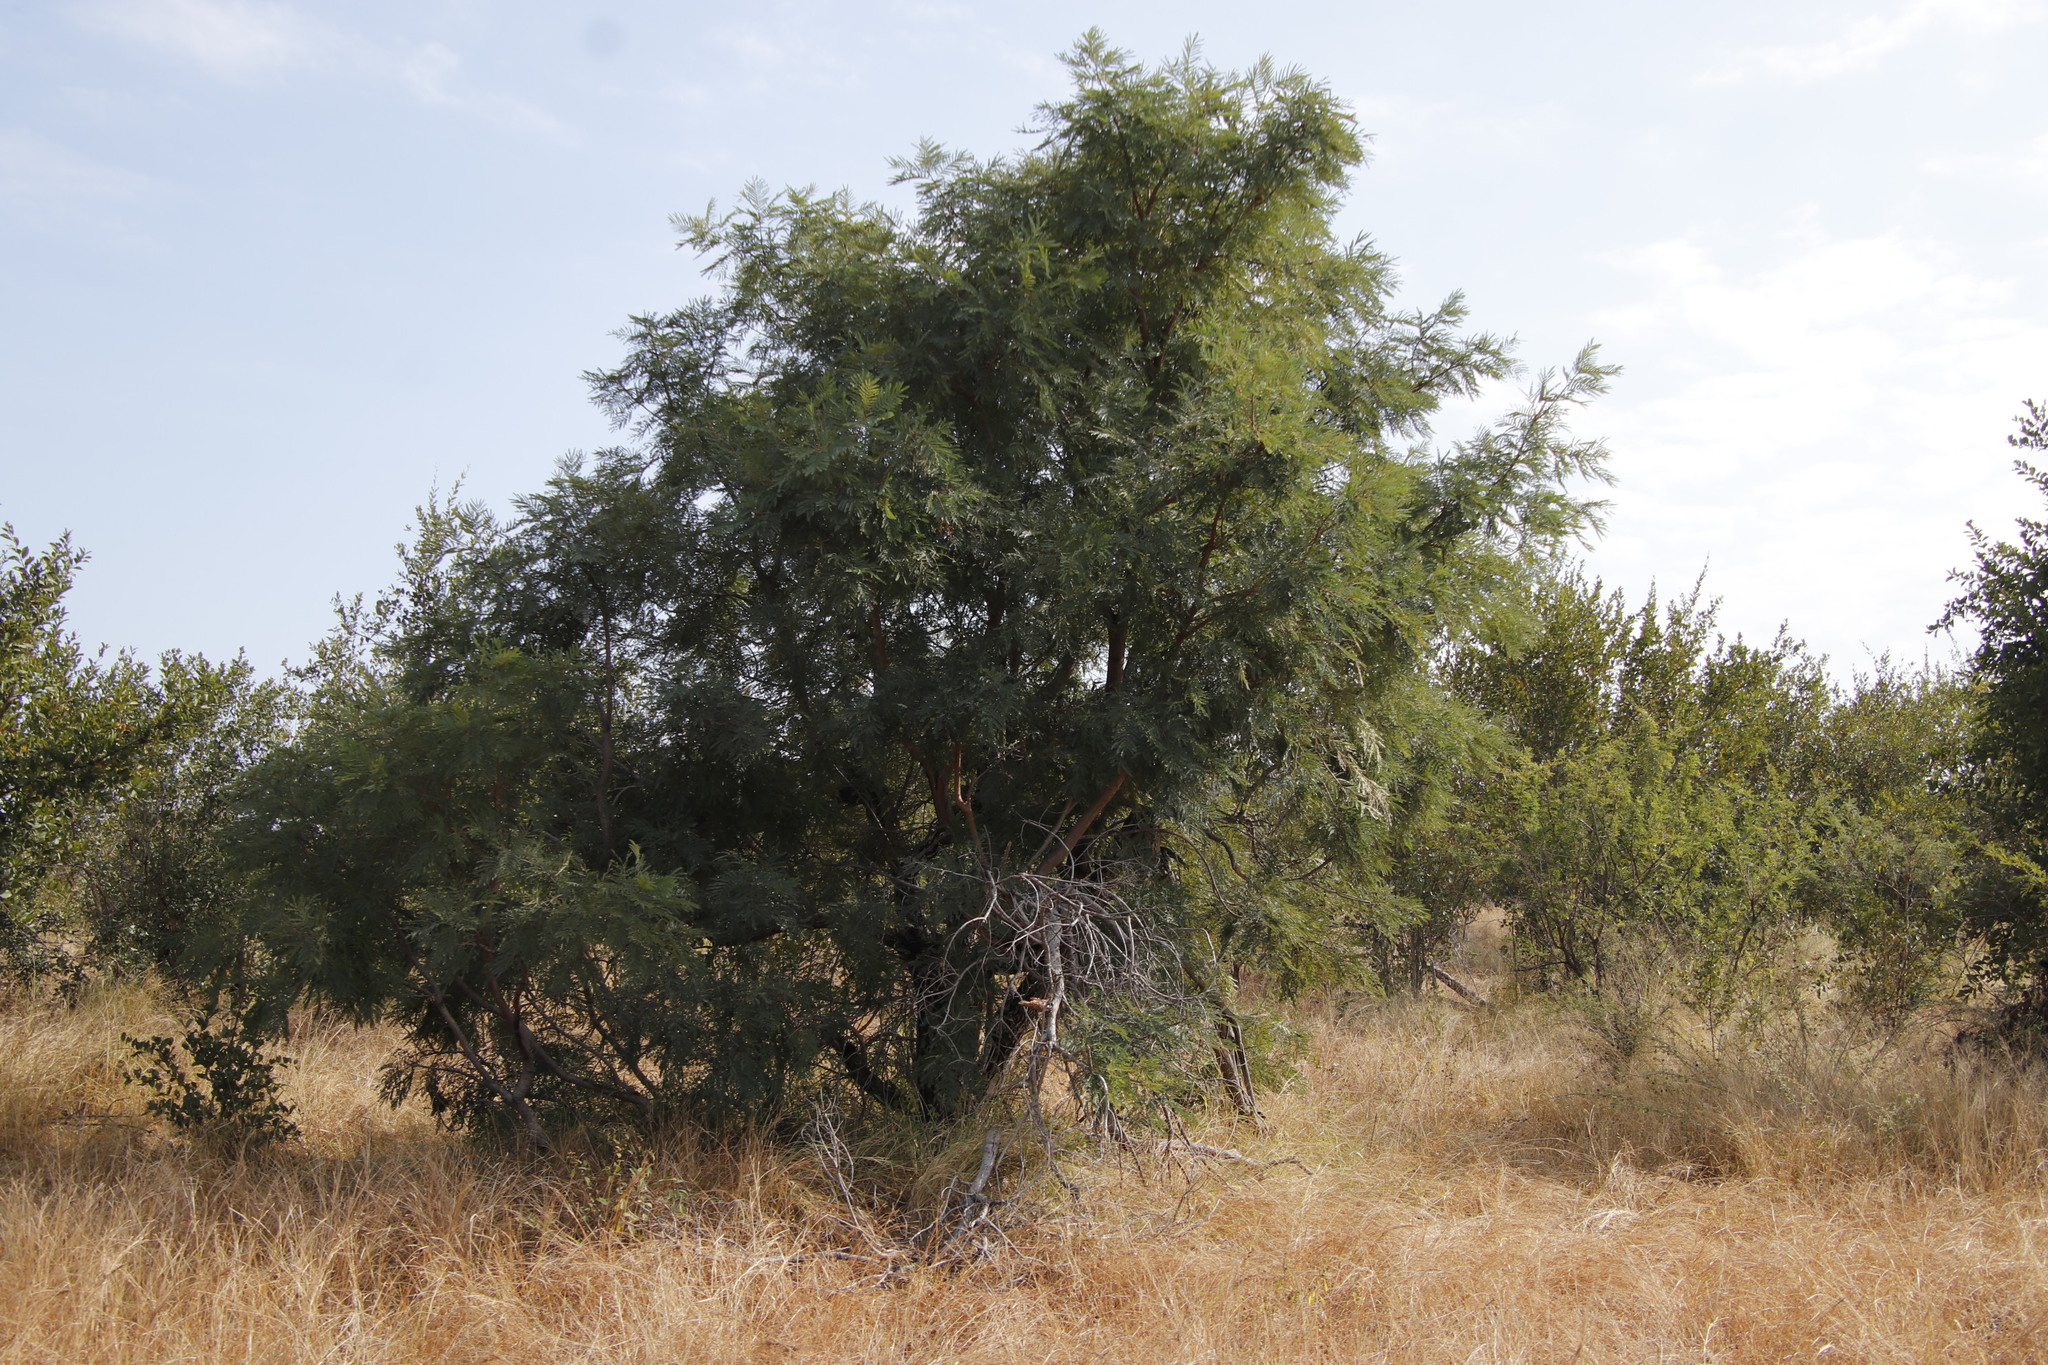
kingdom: Plantae
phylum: Tracheophyta
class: Magnoliopsida
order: Fabales
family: Fabaceae
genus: Peltophorum
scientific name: Peltophorum africanum
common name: African black wattle
